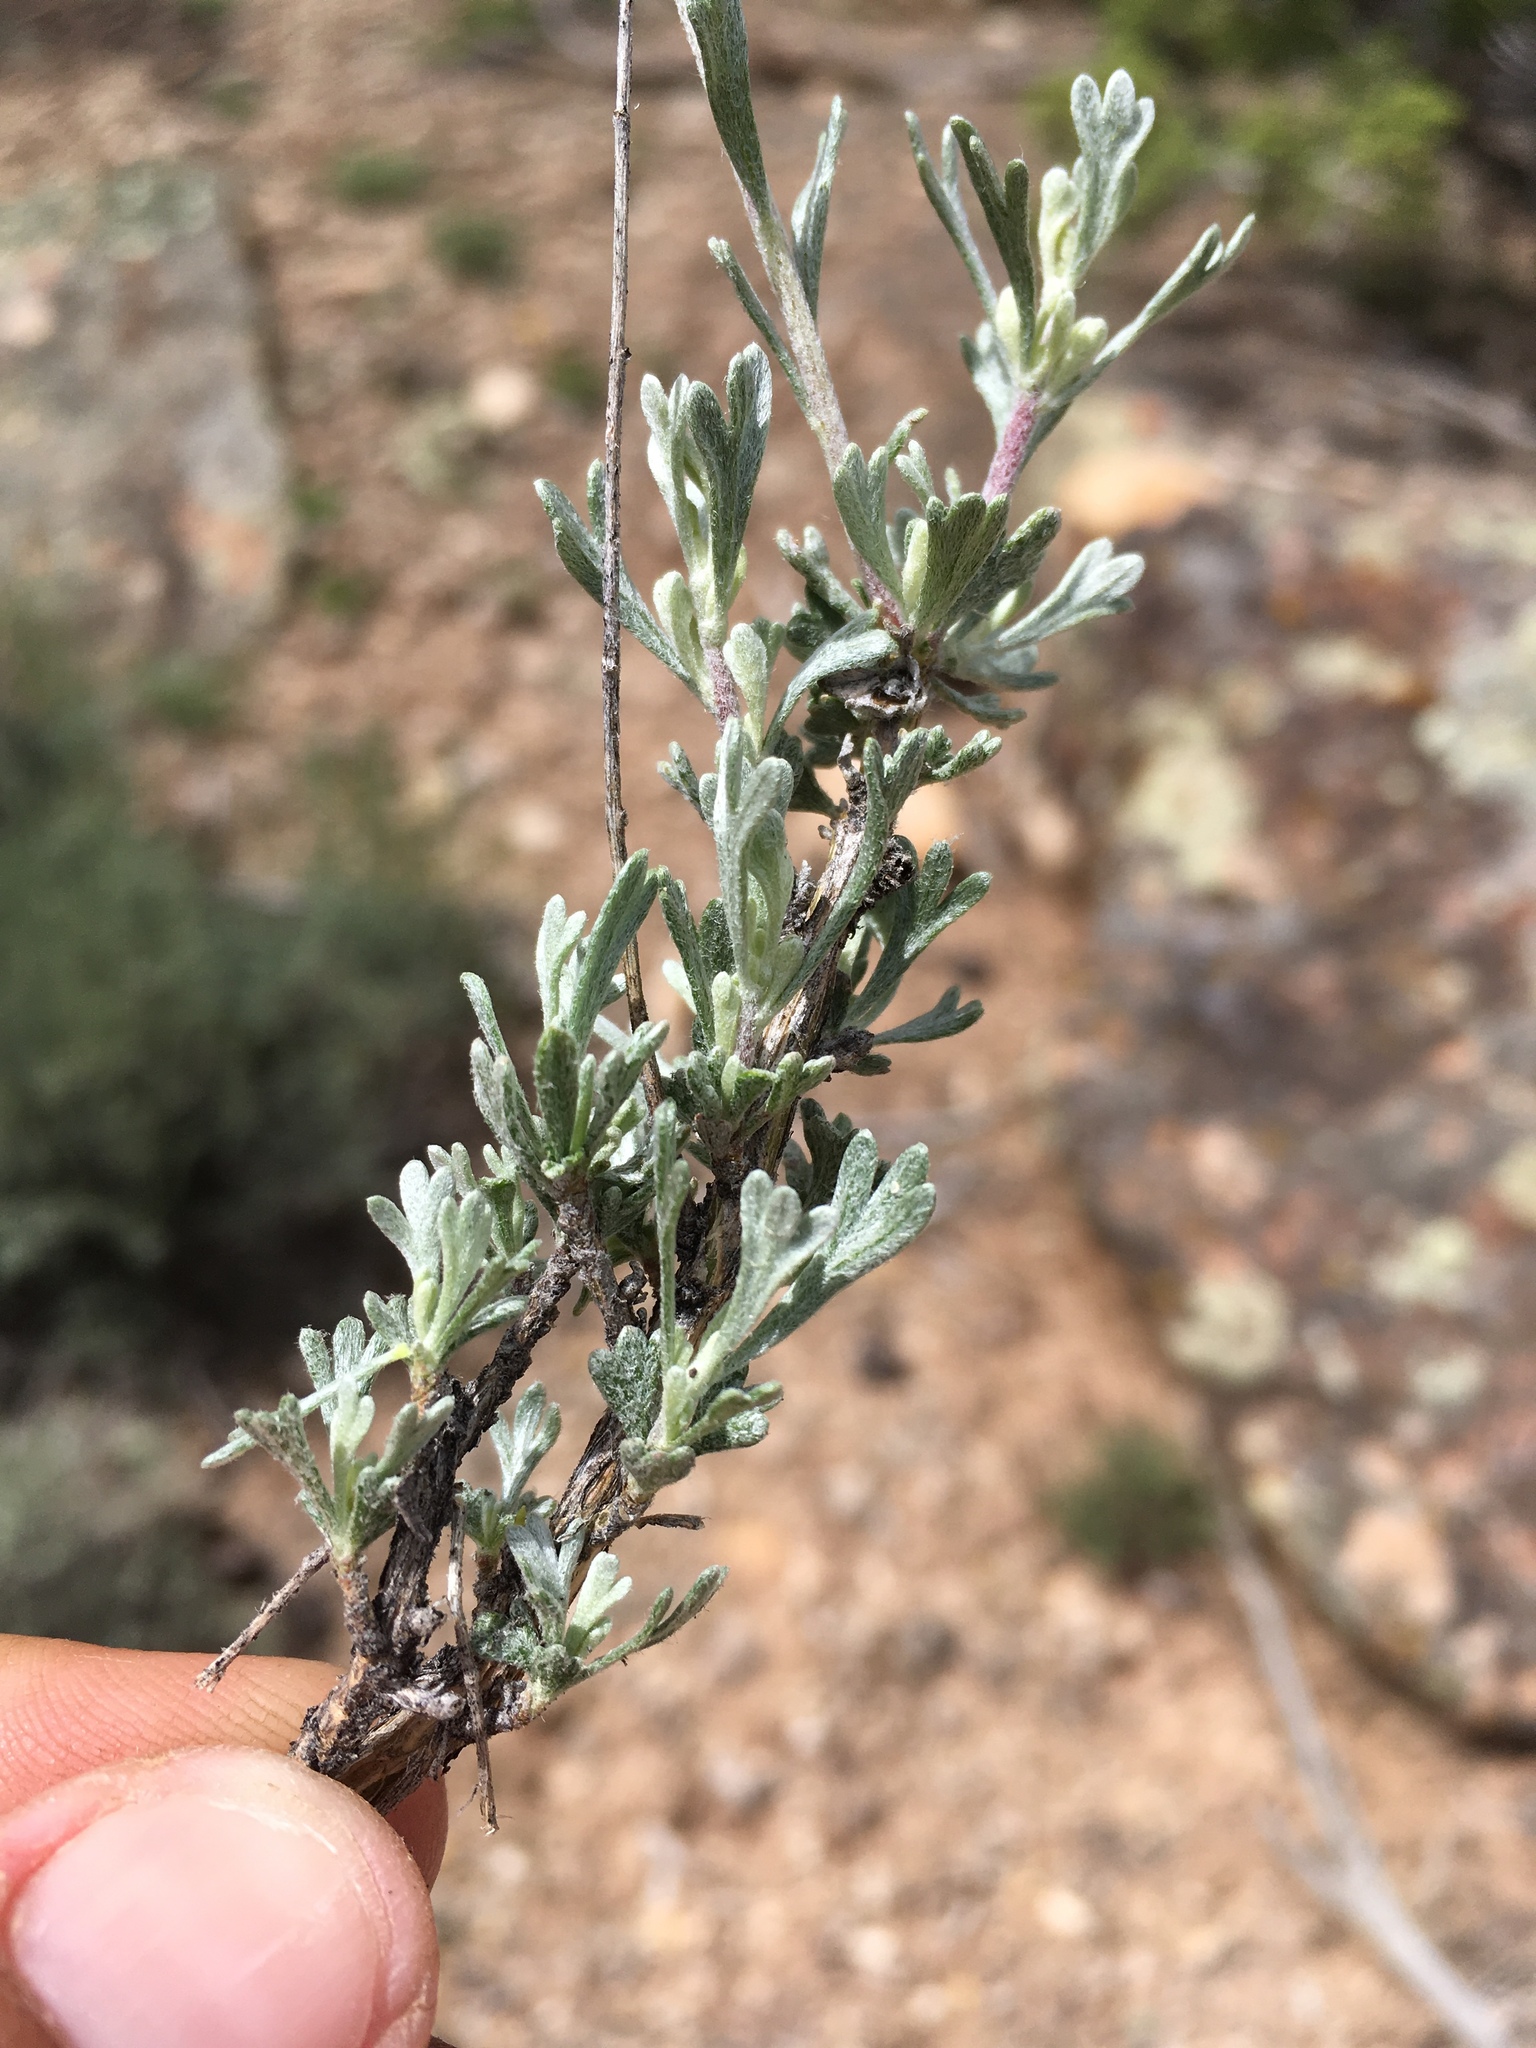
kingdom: Plantae
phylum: Tracheophyta
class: Magnoliopsida
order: Asterales
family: Asteraceae
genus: Artemisia
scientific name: Artemisia nova
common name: Black-sage
